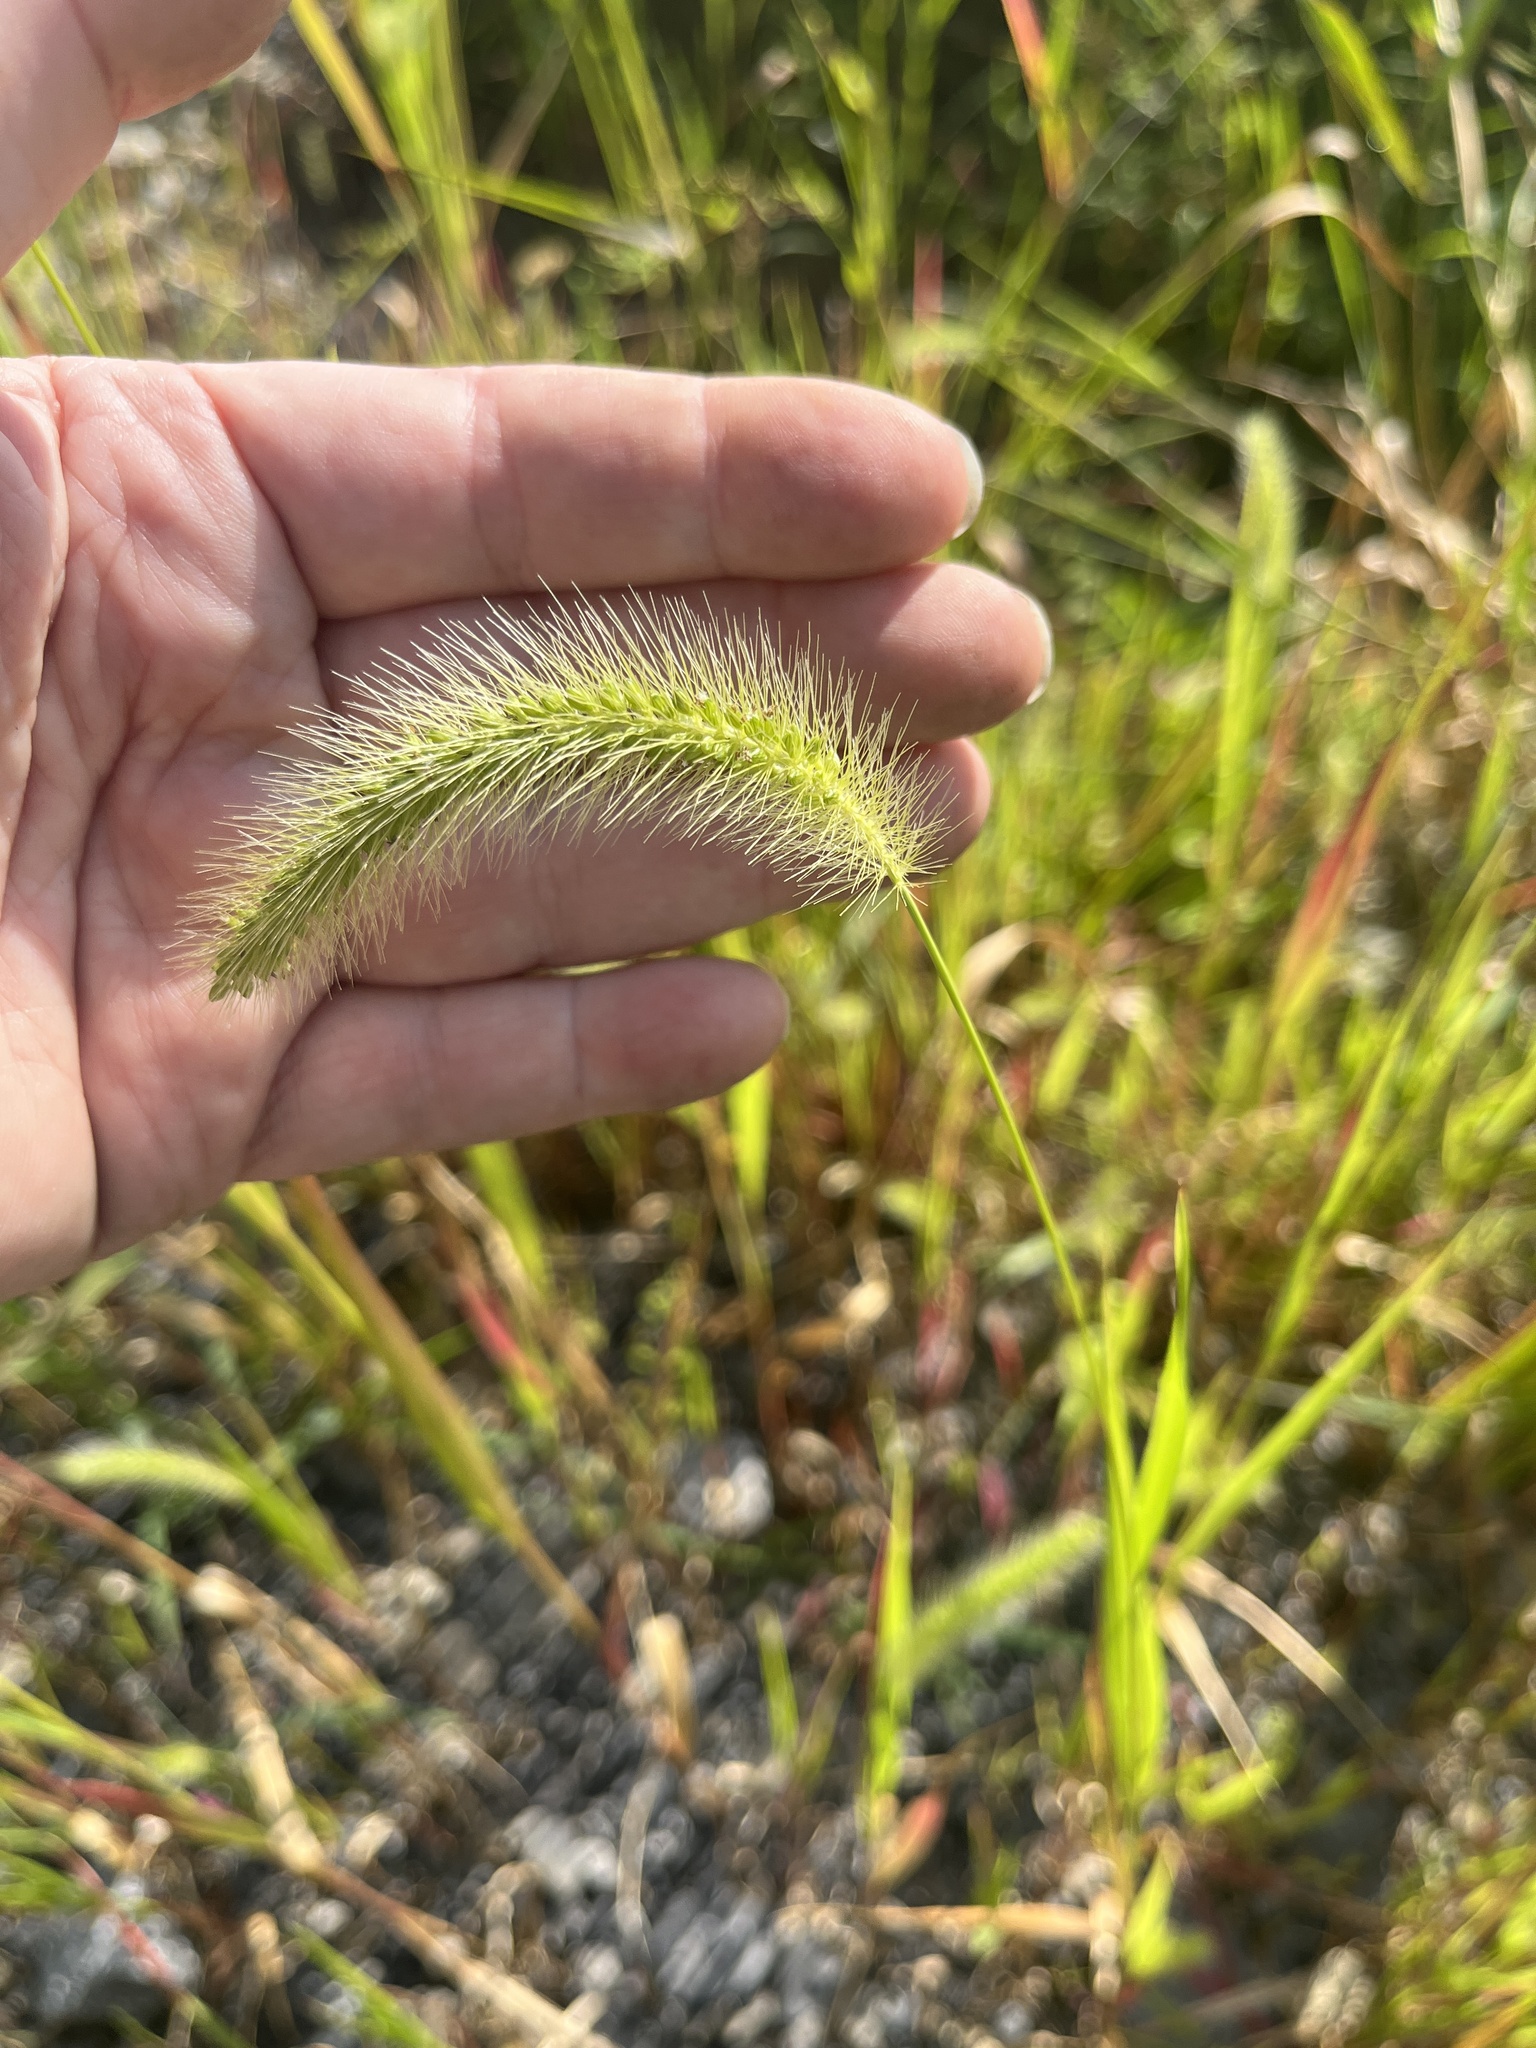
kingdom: Plantae
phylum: Tracheophyta
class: Liliopsida
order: Poales
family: Poaceae
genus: Setaria
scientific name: Setaria faberi
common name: Nodding bristle-grass
